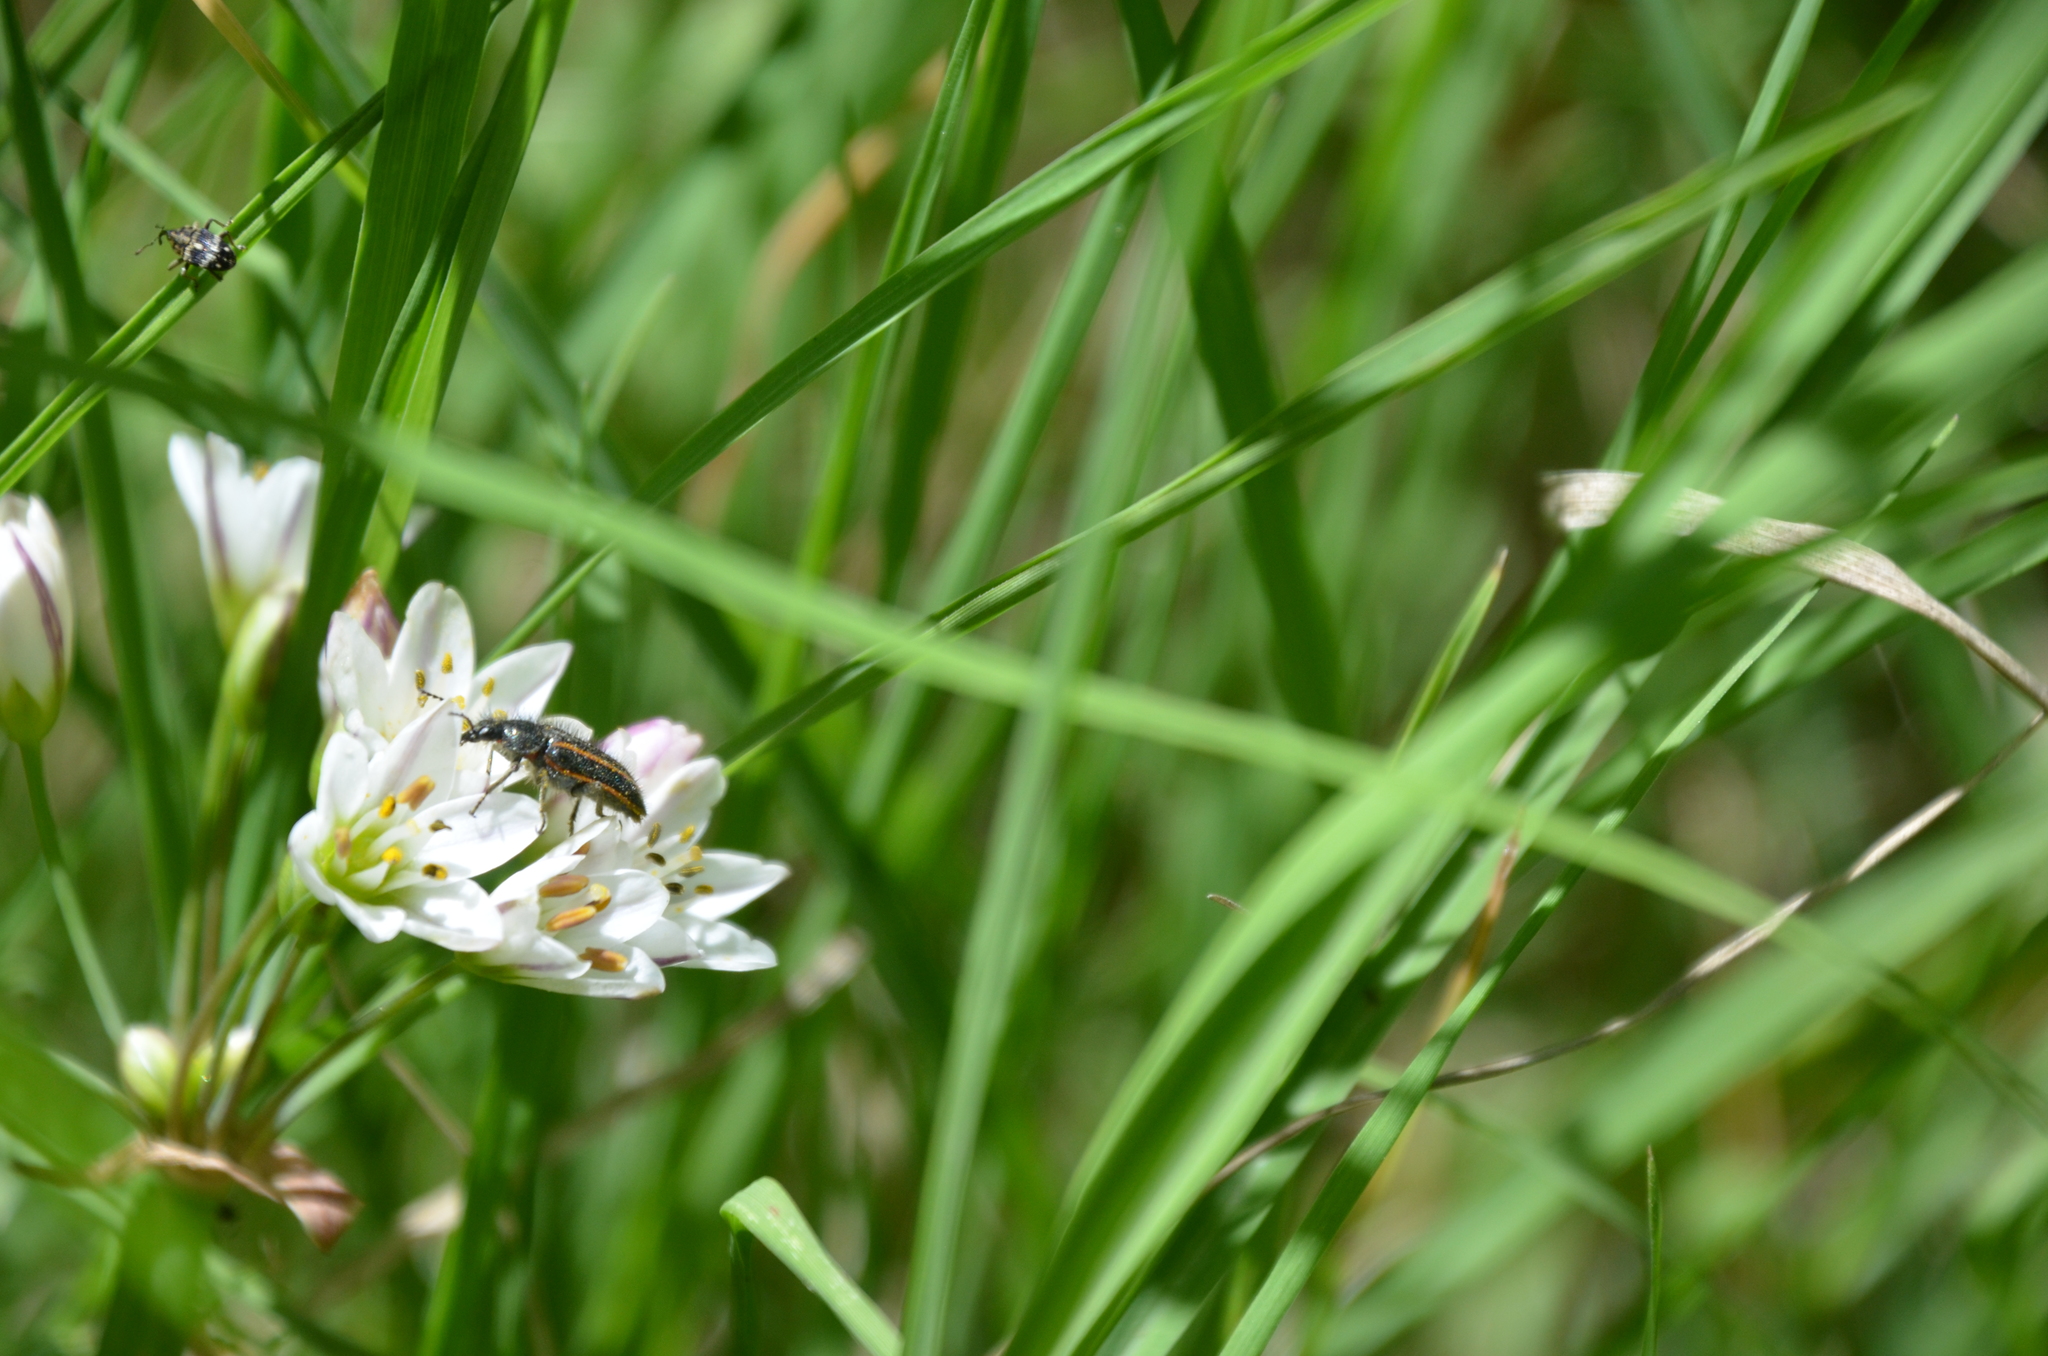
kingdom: Animalia
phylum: Arthropoda
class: Insecta
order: Coleoptera
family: Melyridae
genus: Astylus
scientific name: Astylus
